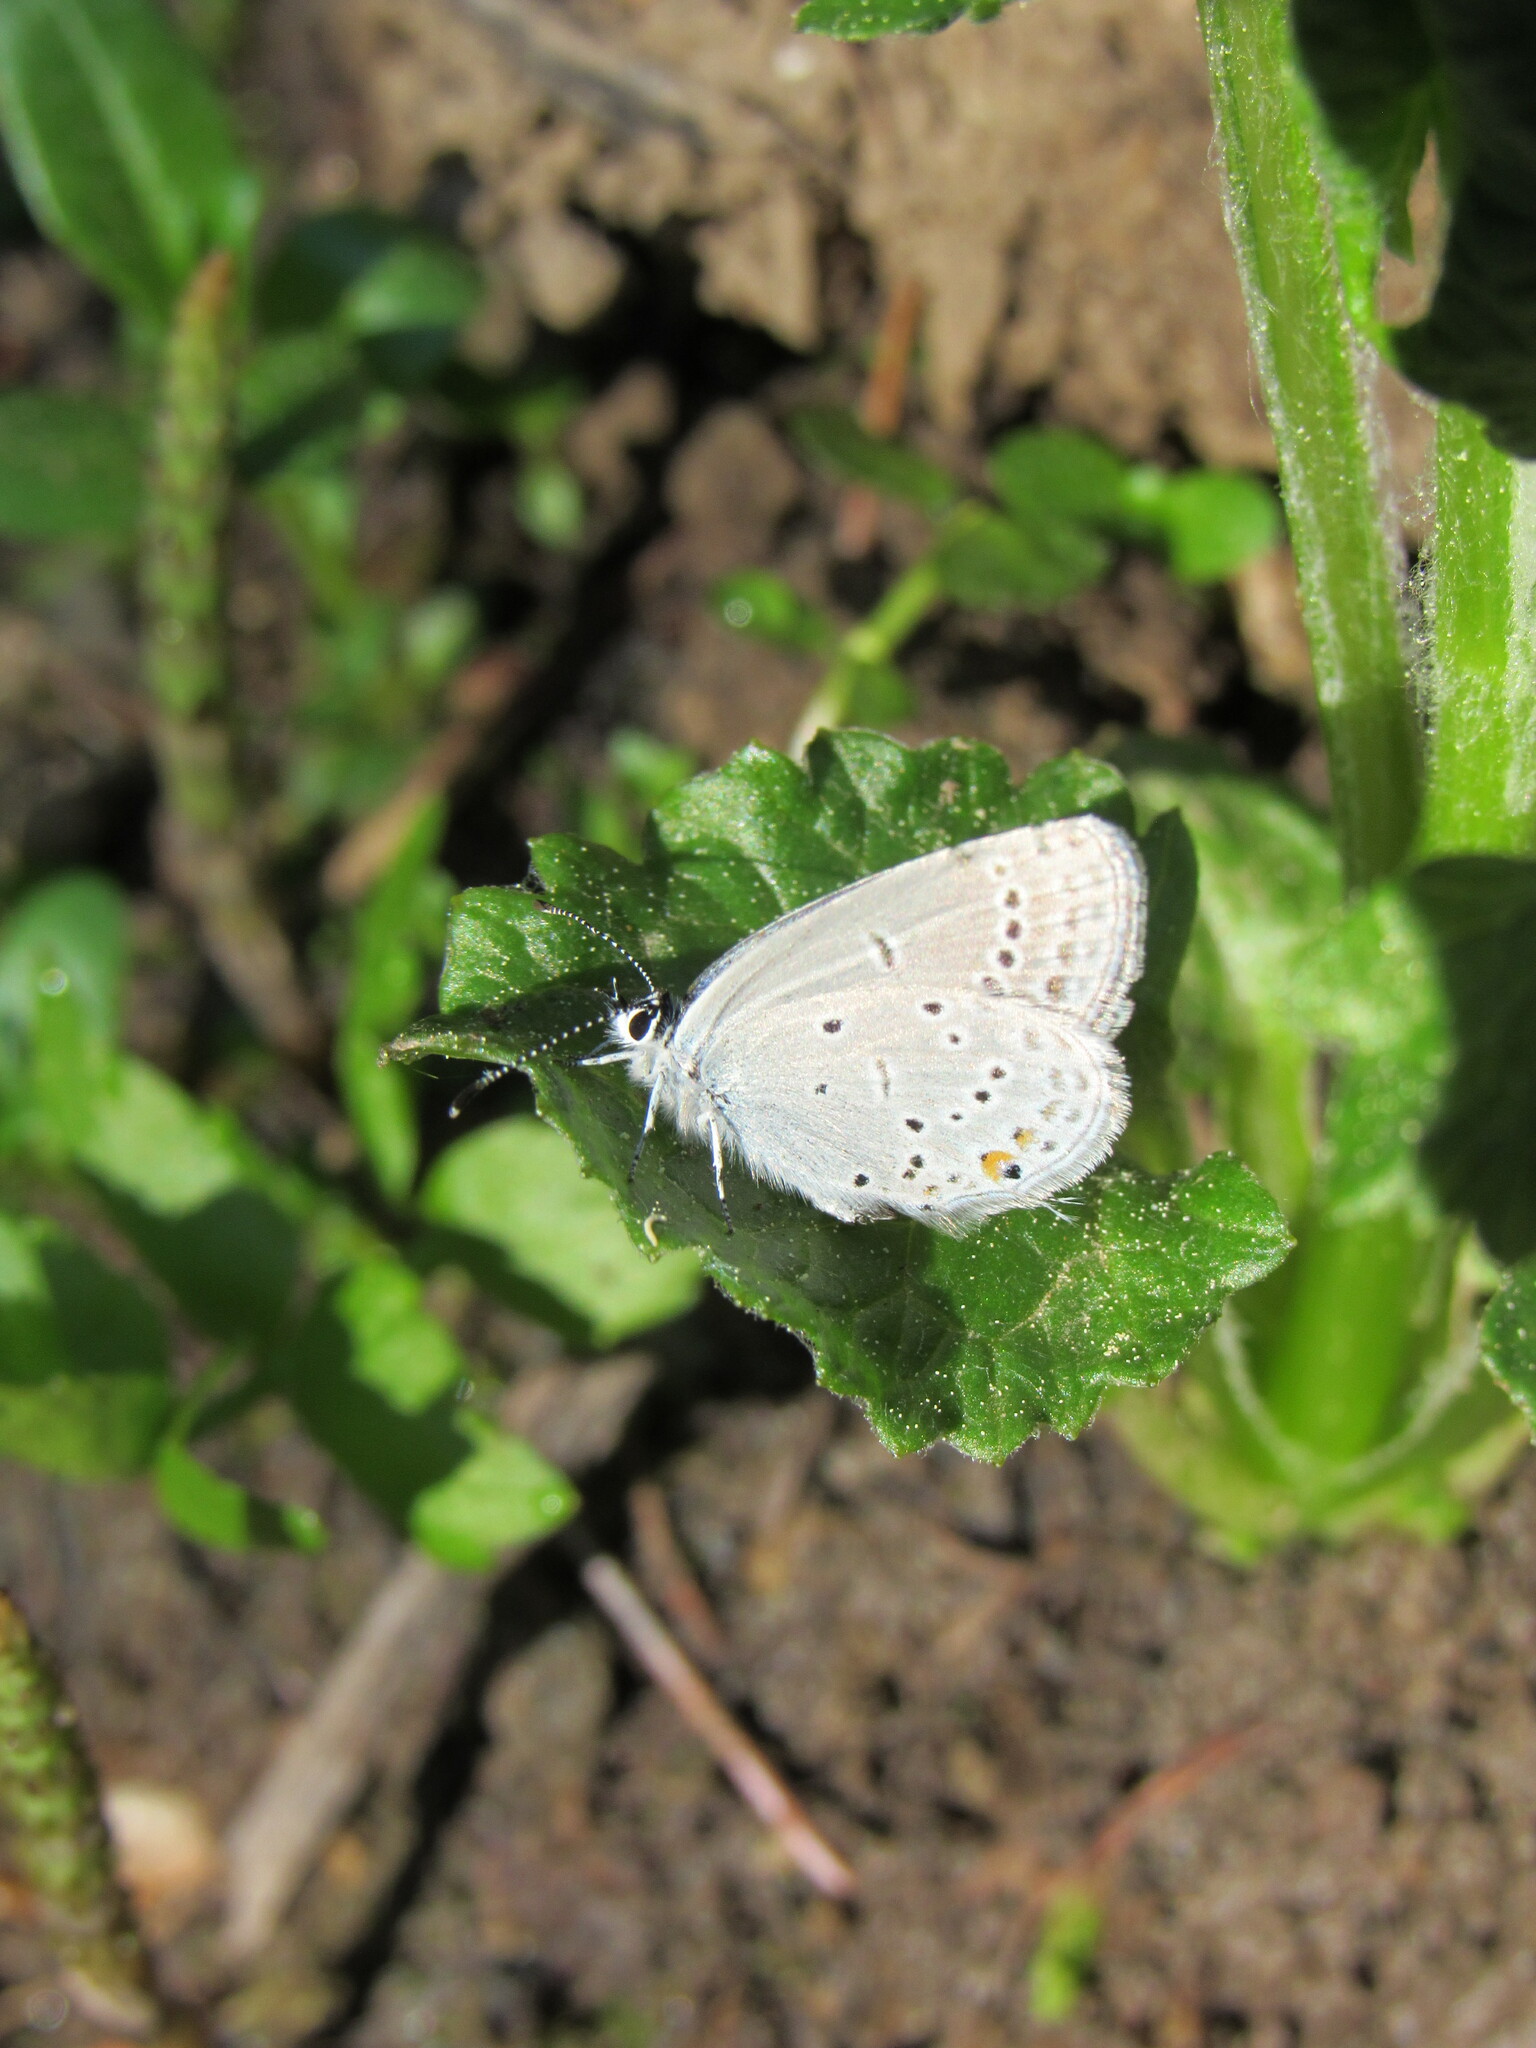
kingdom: Animalia
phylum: Arthropoda
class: Insecta
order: Lepidoptera
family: Lycaenidae
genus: Elkalyce
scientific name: Elkalyce amyntula
